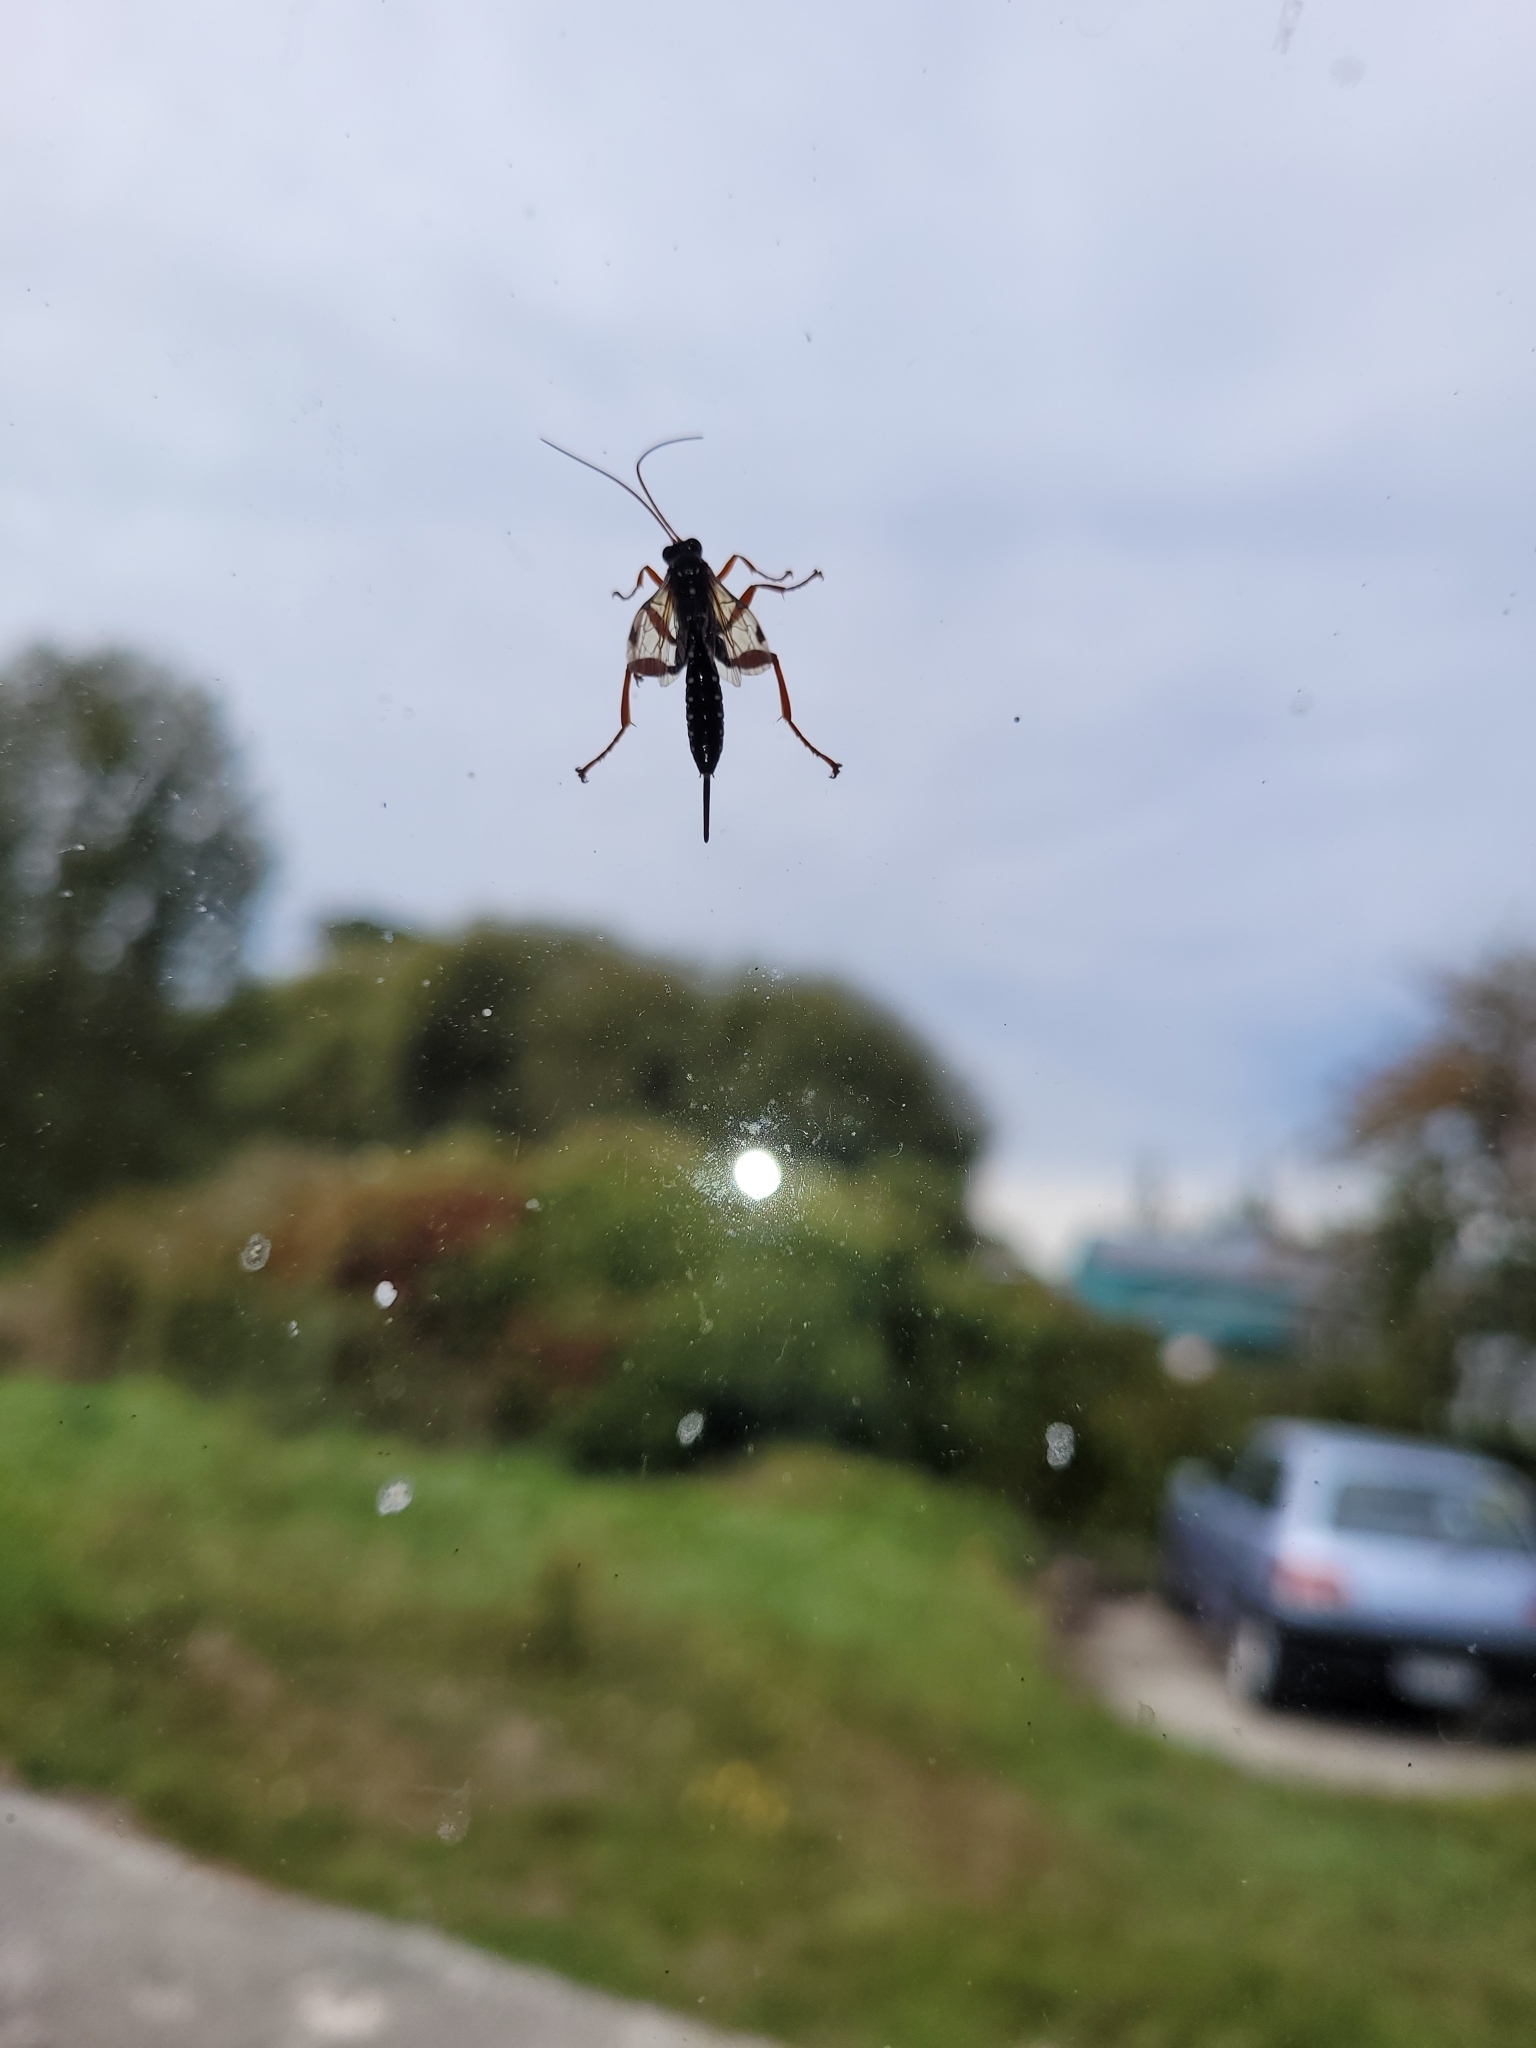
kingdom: Animalia
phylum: Arthropoda
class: Insecta
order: Hymenoptera
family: Ichneumonidae
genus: Echthromorpha
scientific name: Echthromorpha intricatoria
